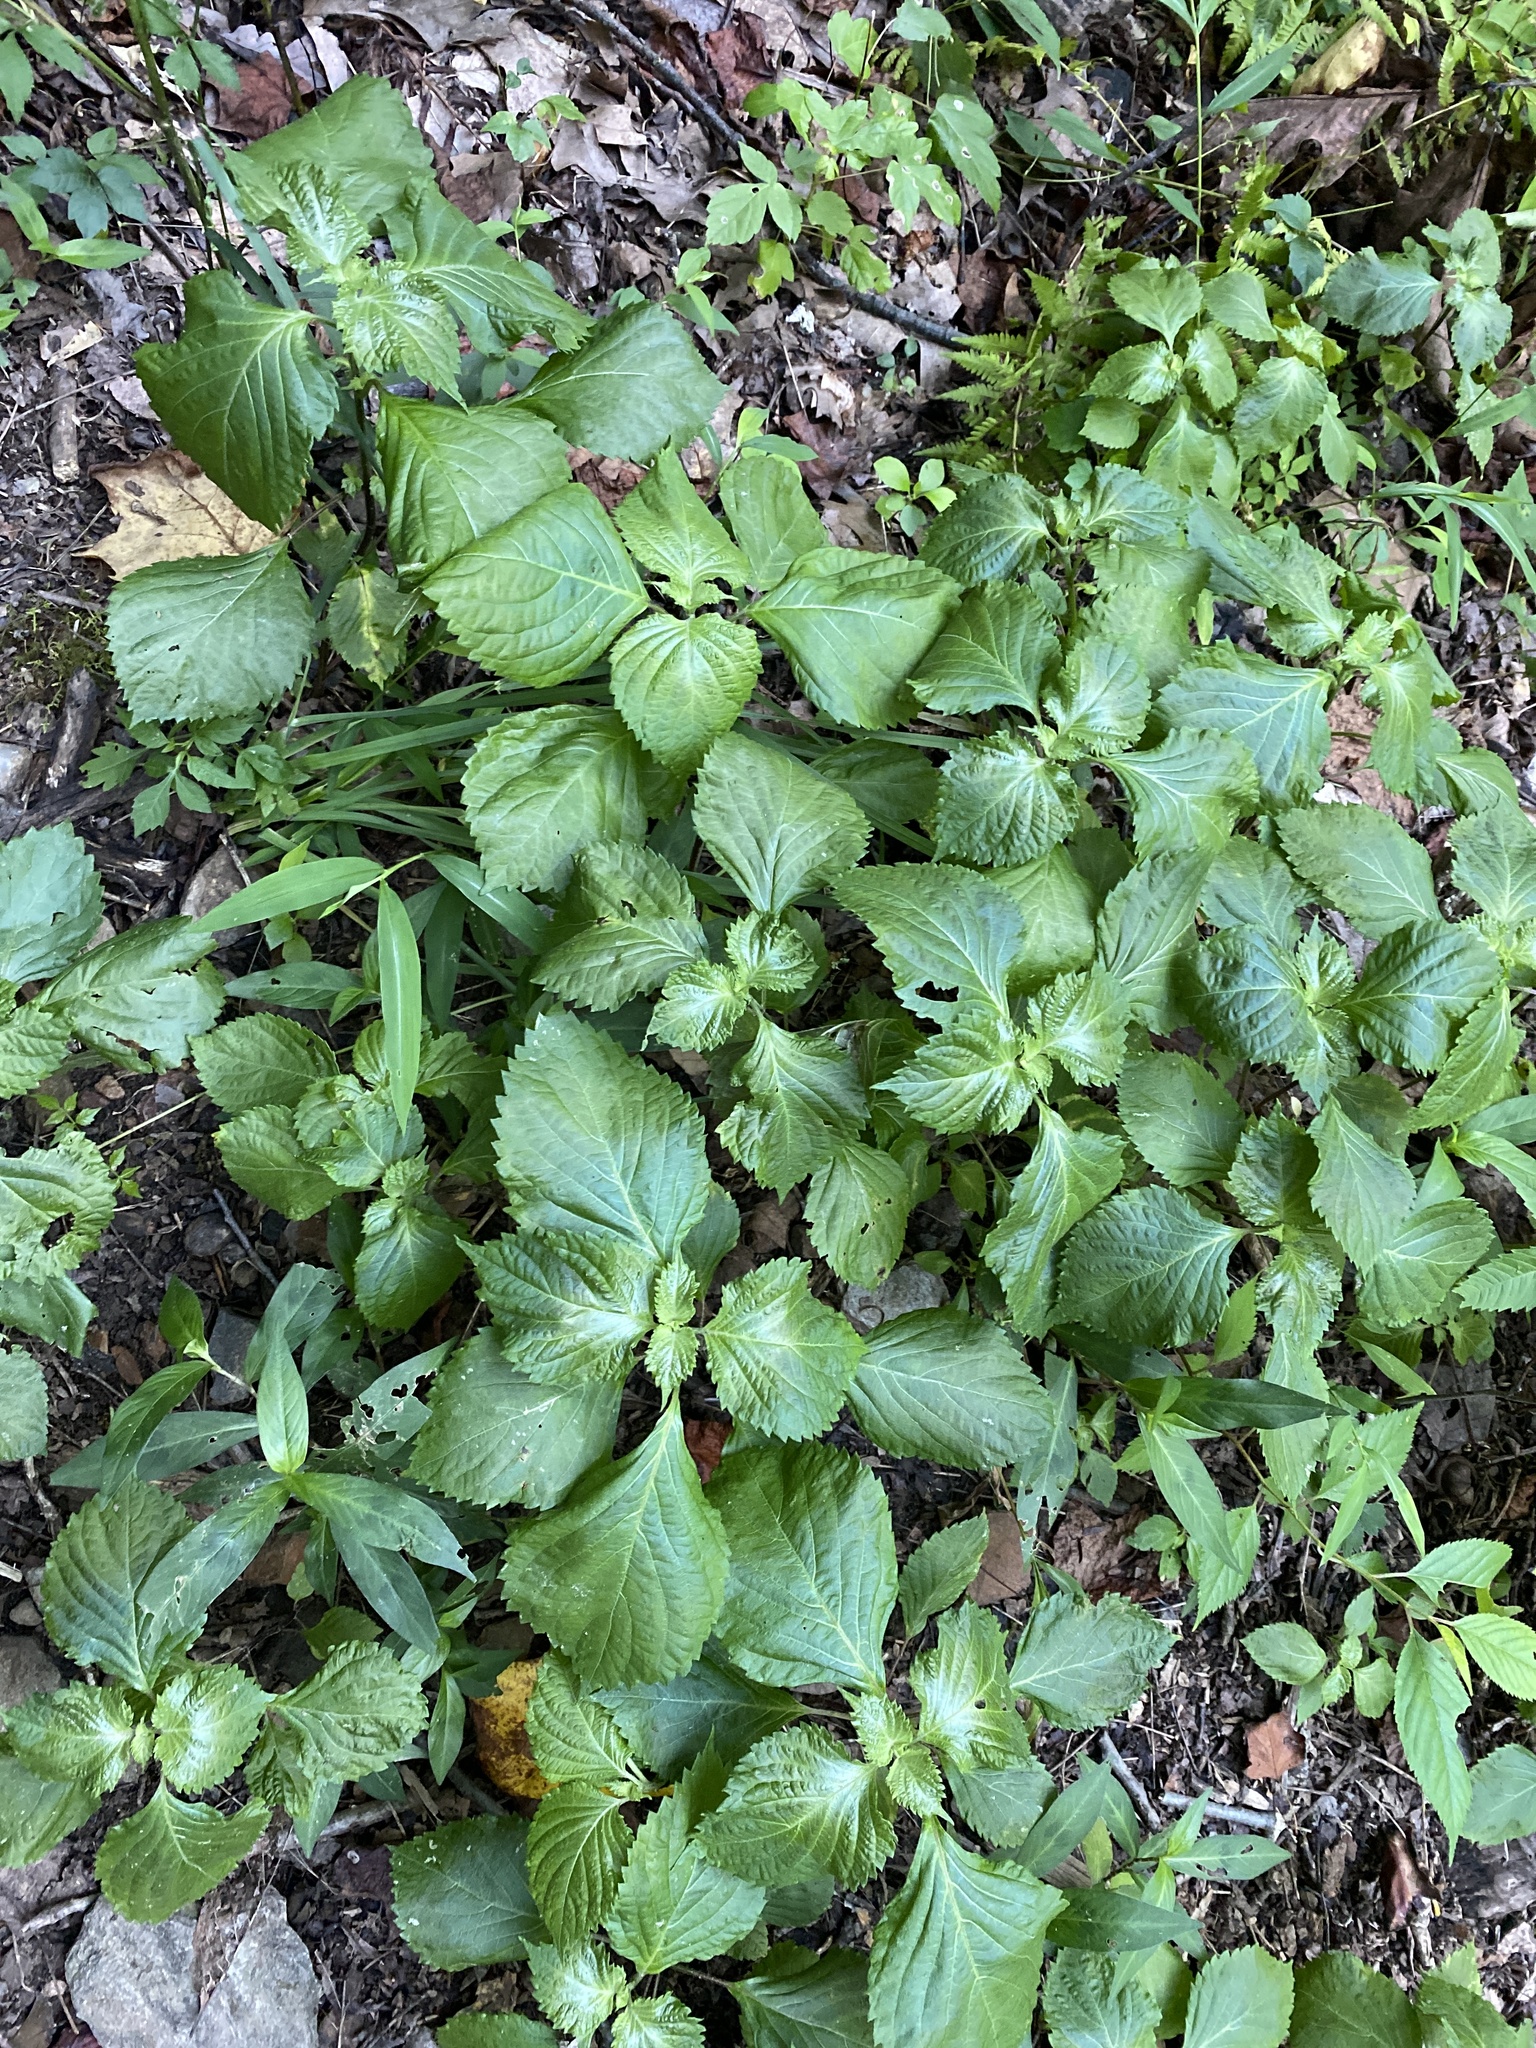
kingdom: Plantae
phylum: Tracheophyta
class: Magnoliopsida
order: Lamiales
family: Lamiaceae
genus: Perilla
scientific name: Perilla frutescens
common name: Perilla
